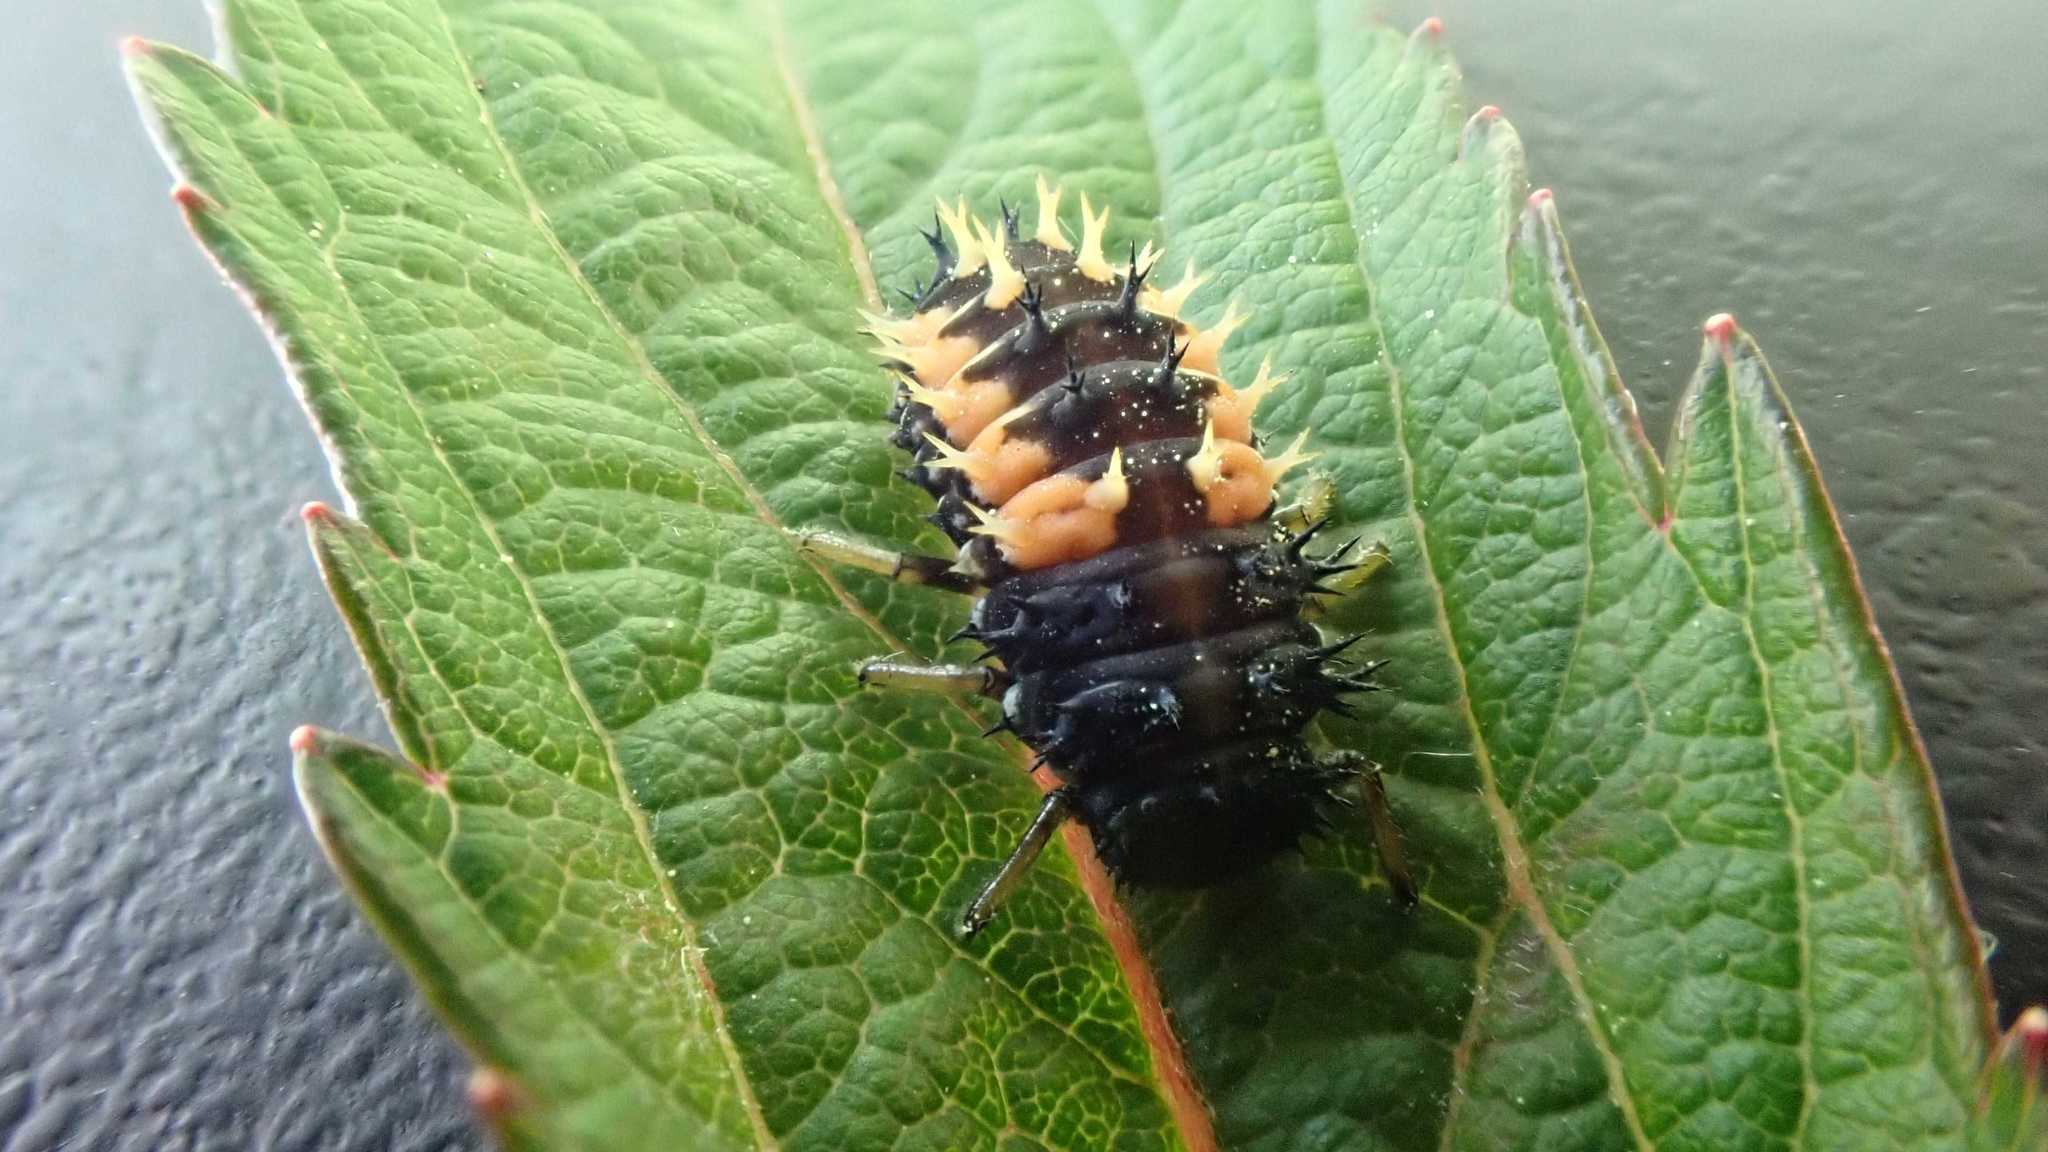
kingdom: Animalia
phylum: Arthropoda
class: Insecta
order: Coleoptera
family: Coccinellidae
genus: Harmonia
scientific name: Harmonia axyridis
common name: Harlequin ladybird
